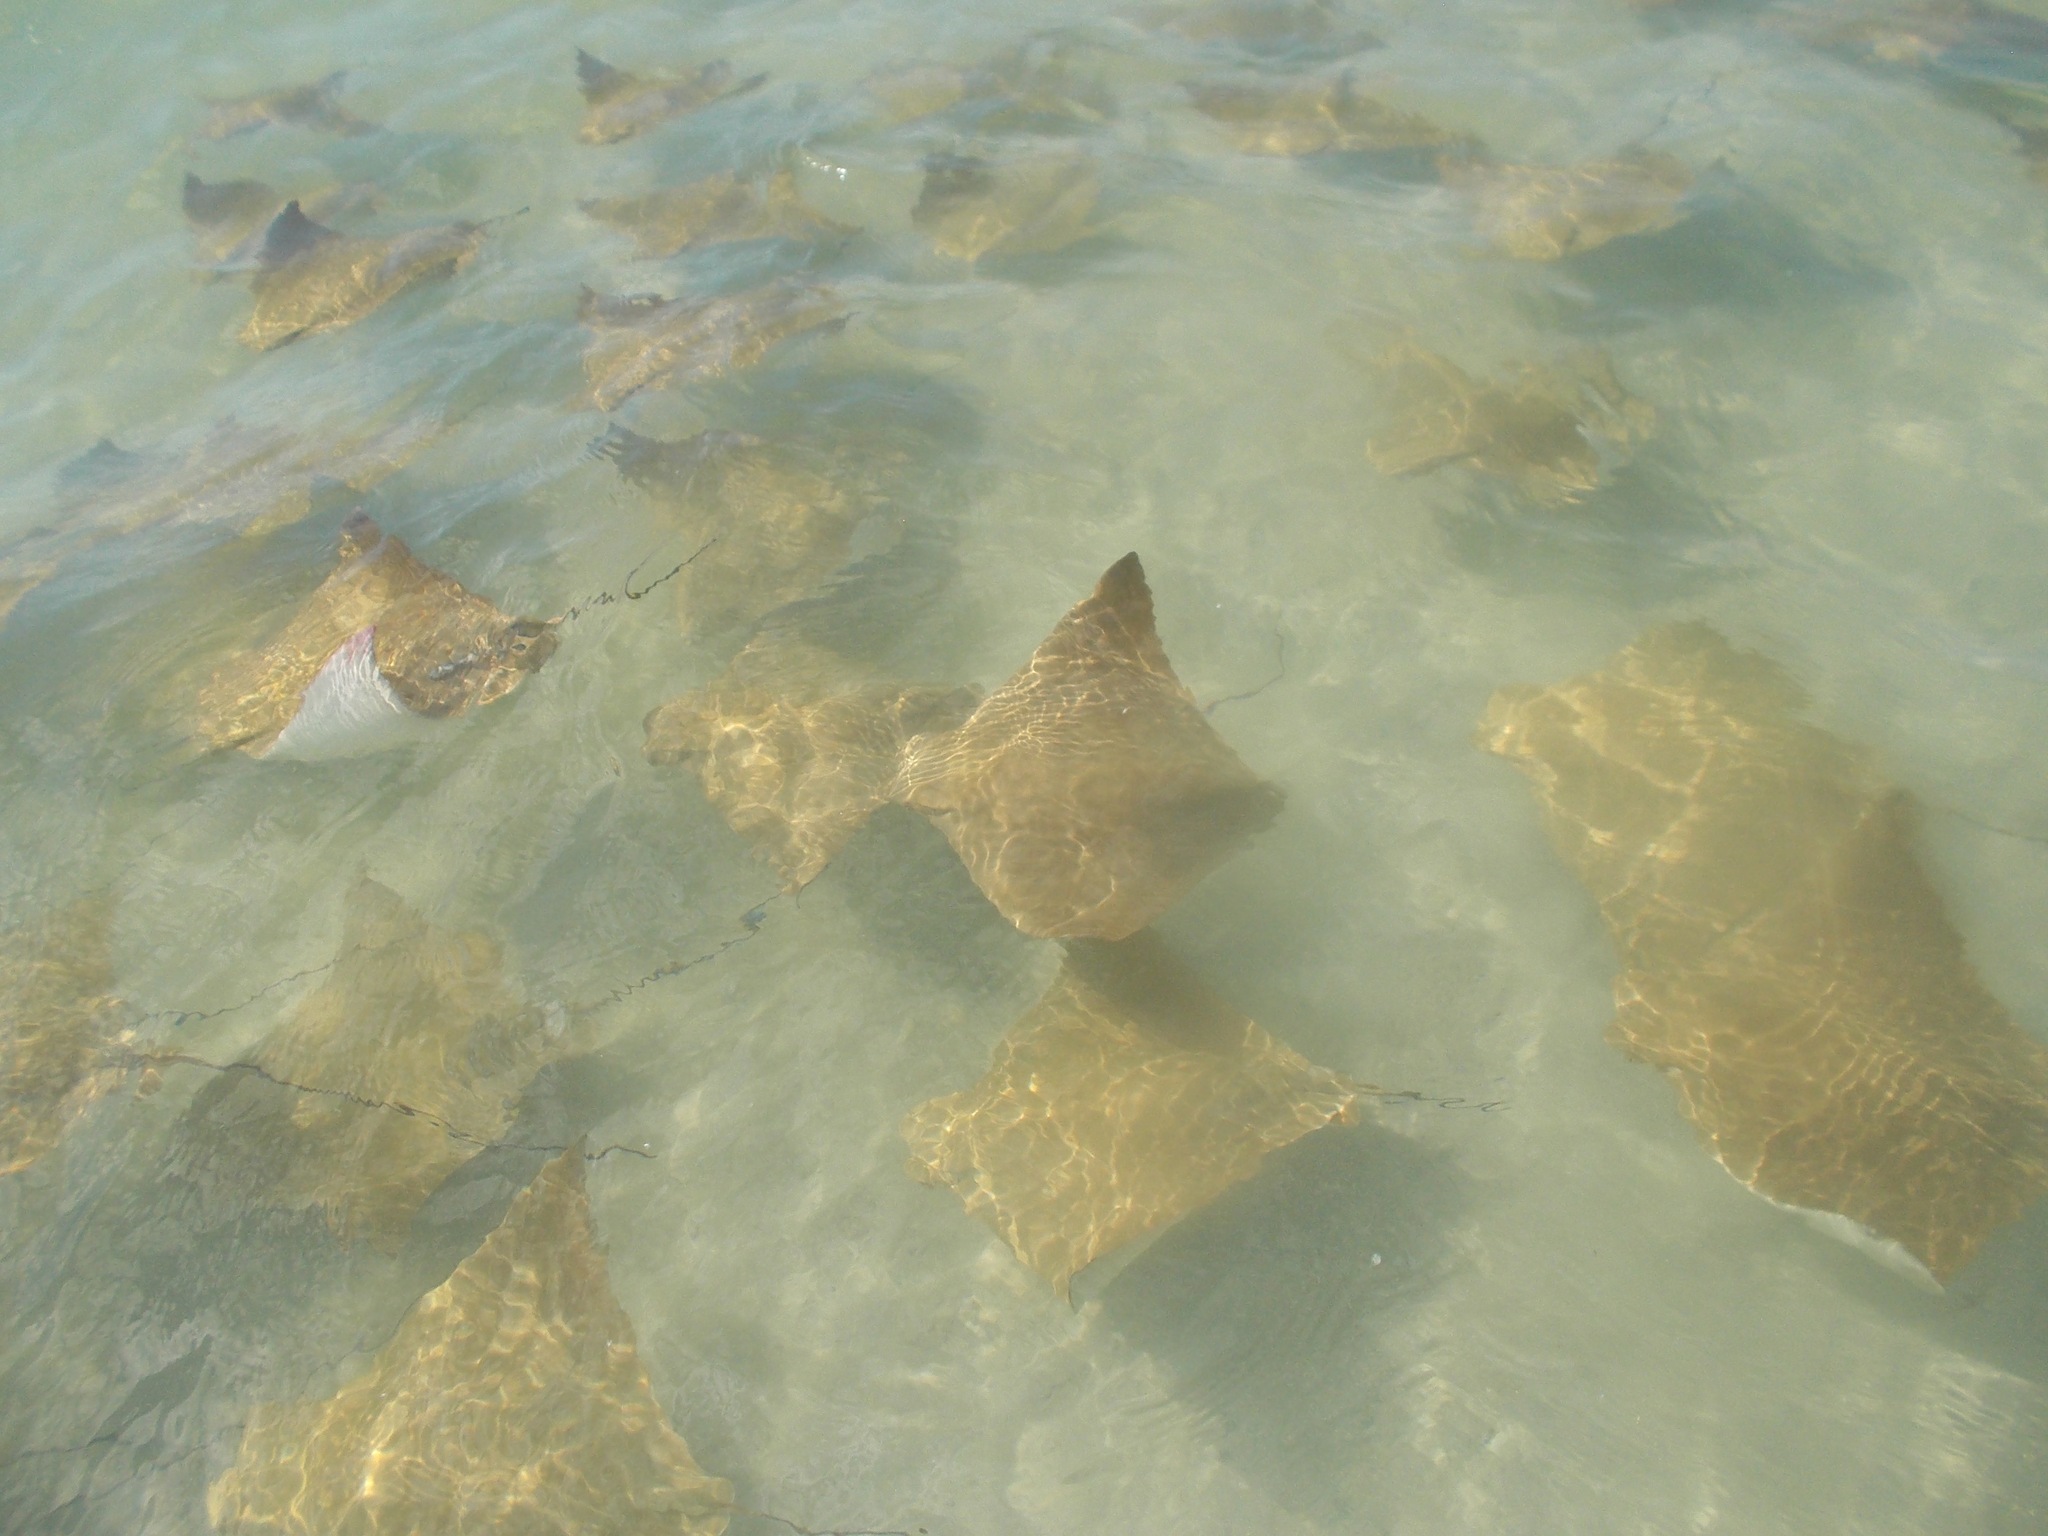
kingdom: Animalia
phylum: Chordata
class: Elasmobranchii
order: Myliobatiformes
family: Myliobatidae
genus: Rhinoptera
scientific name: Rhinoptera
